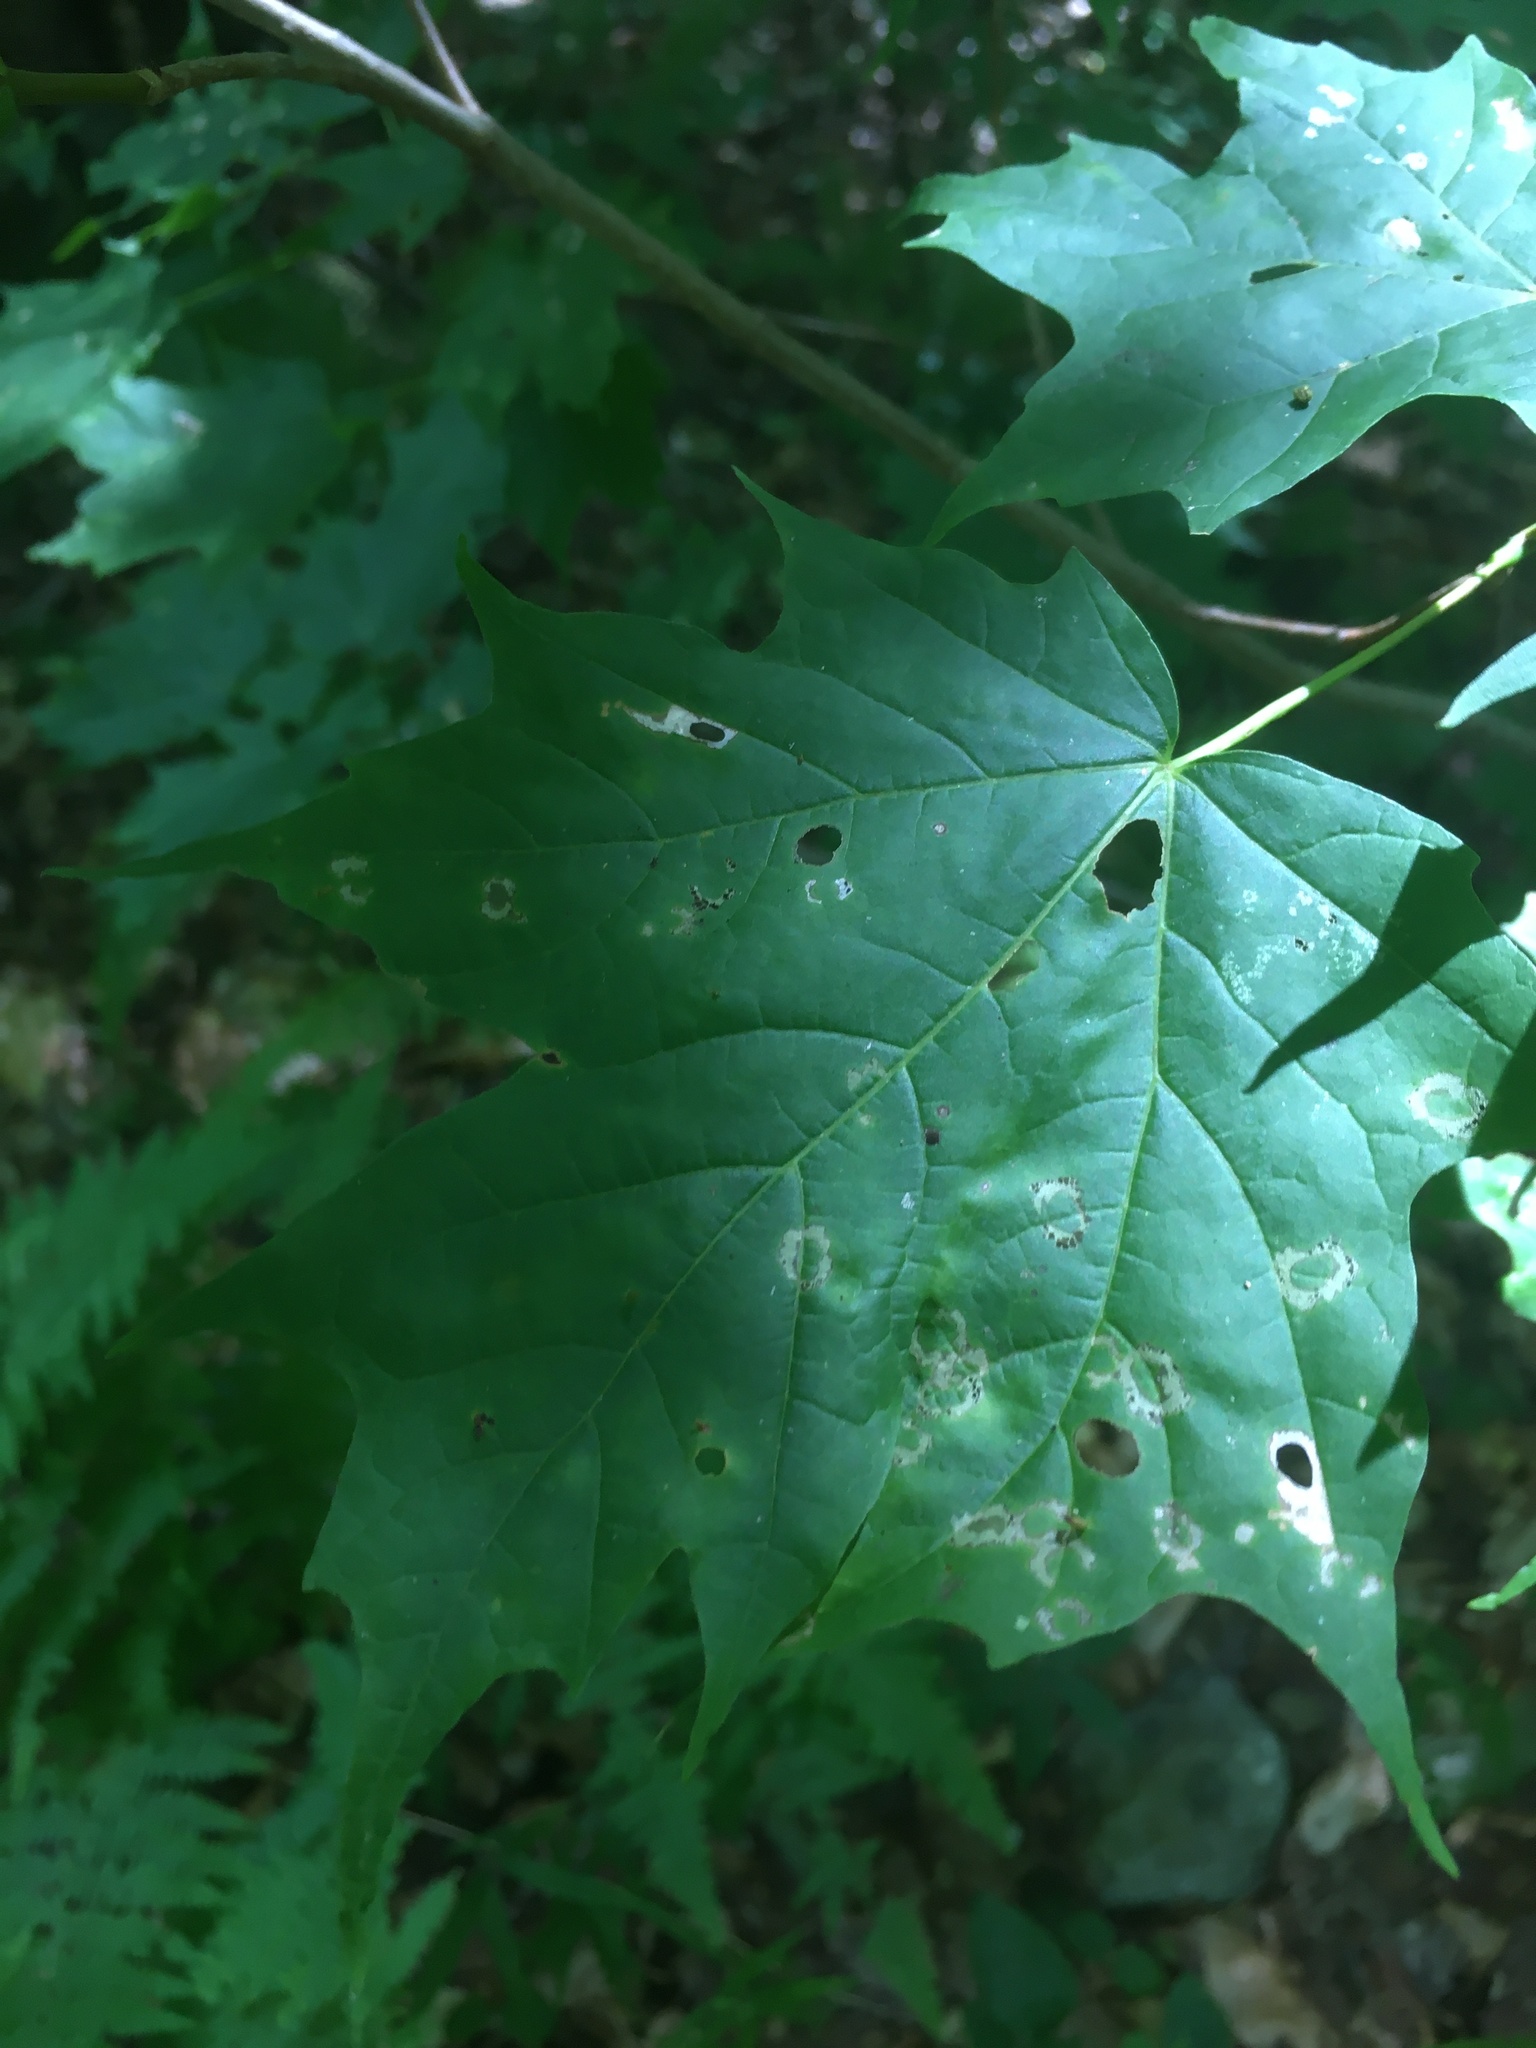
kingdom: Animalia
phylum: Arthropoda
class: Insecta
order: Lepidoptera
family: Incurvariidae
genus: Paraclemensia
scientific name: Paraclemensia acerifoliella
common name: Maple leafcutter
